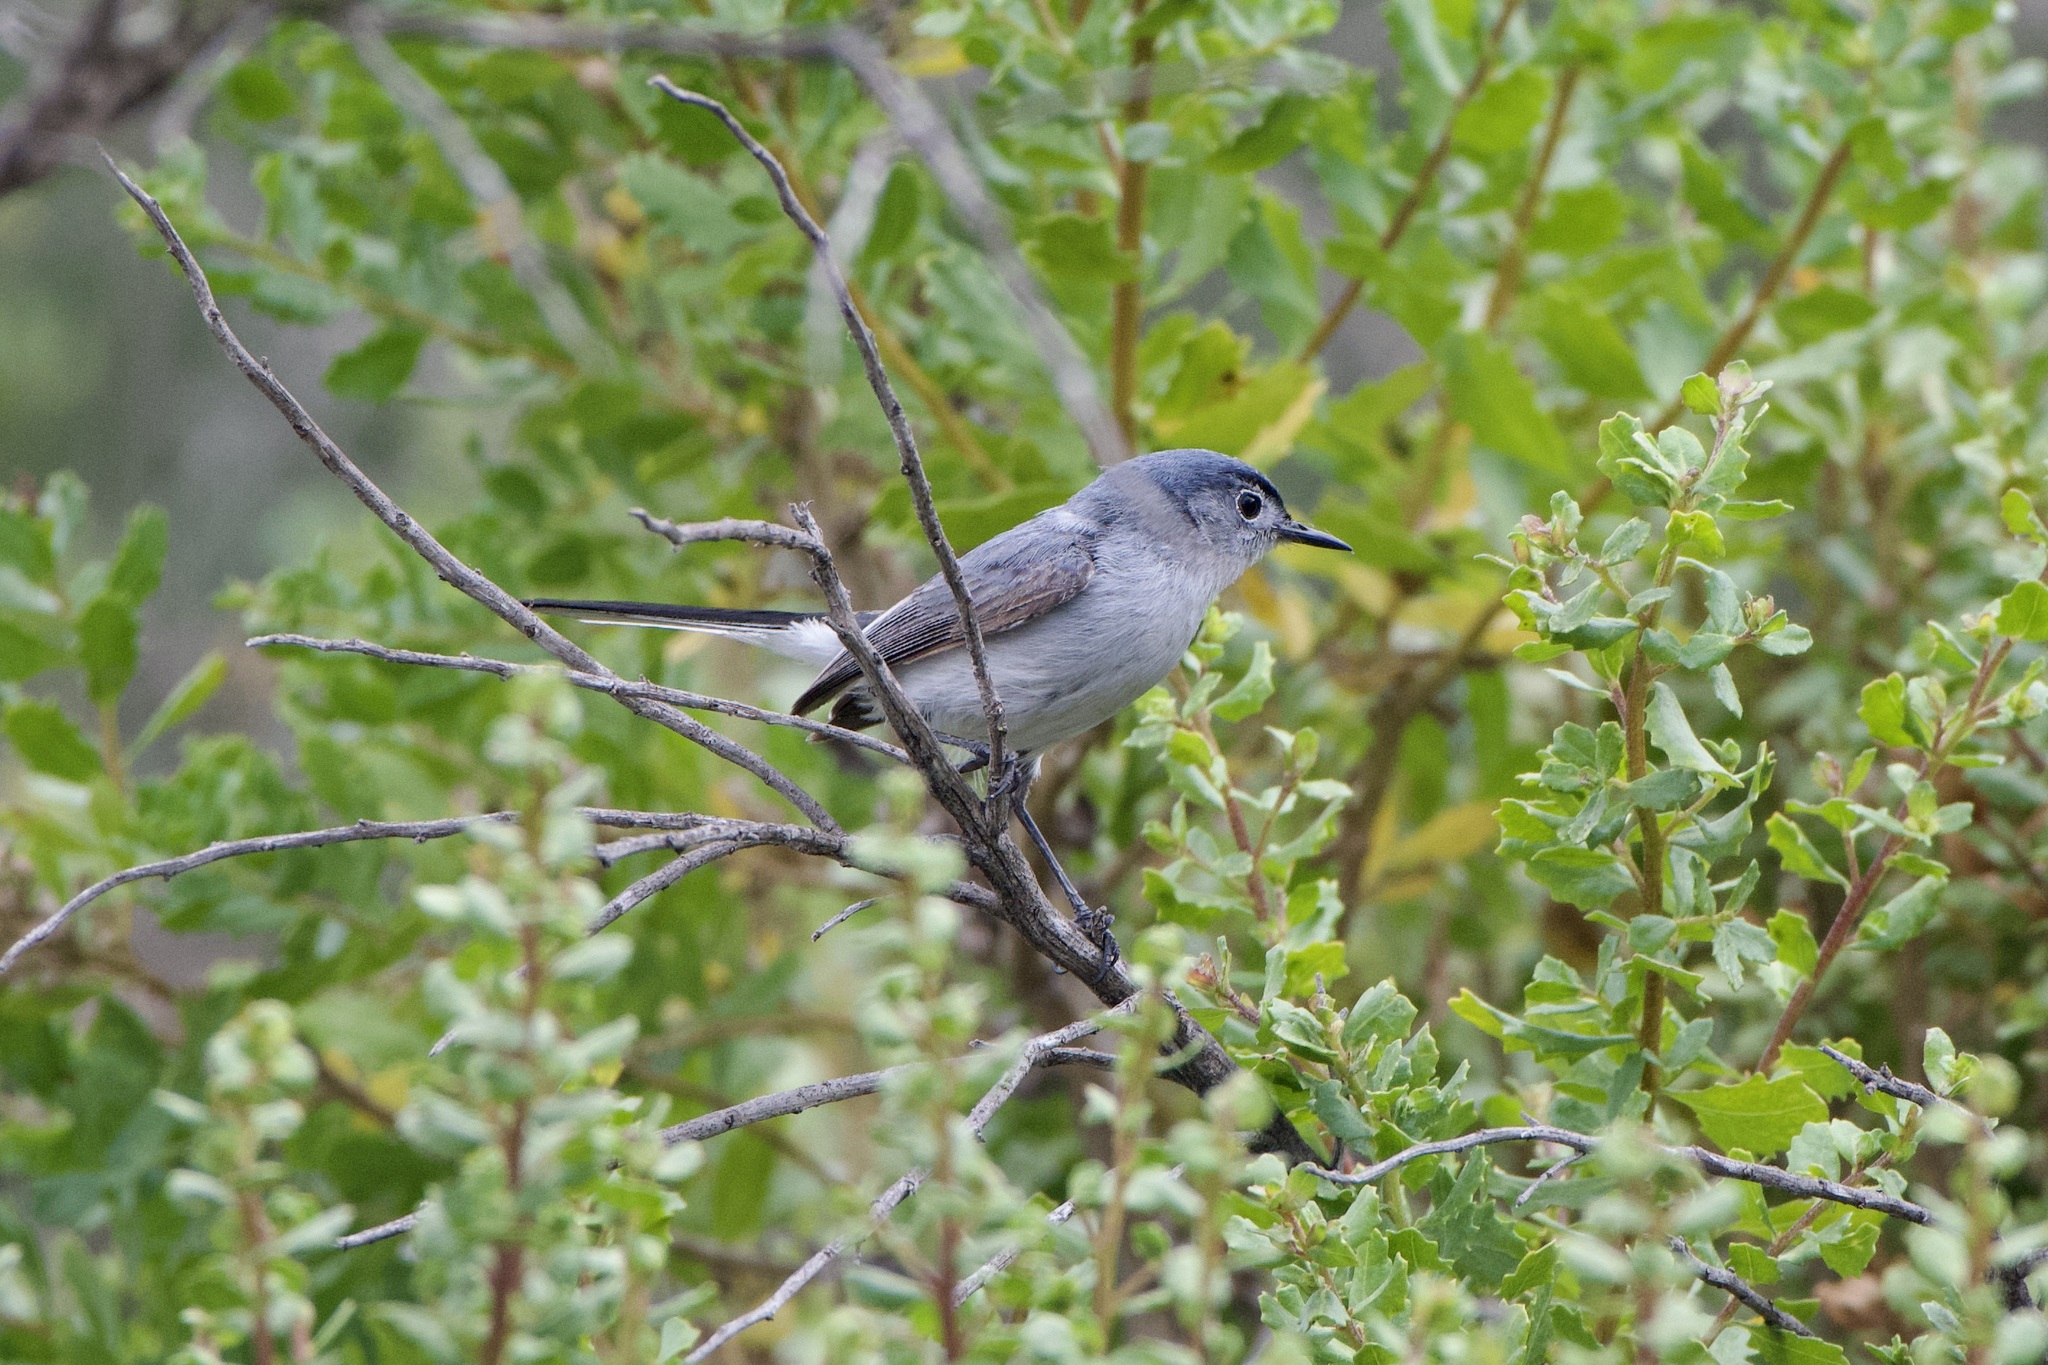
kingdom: Animalia
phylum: Chordata
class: Aves
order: Passeriformes
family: Polioptilidae
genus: Polioptila
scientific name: Polioptila caerulea
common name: Blue-gray gnatcatcher
